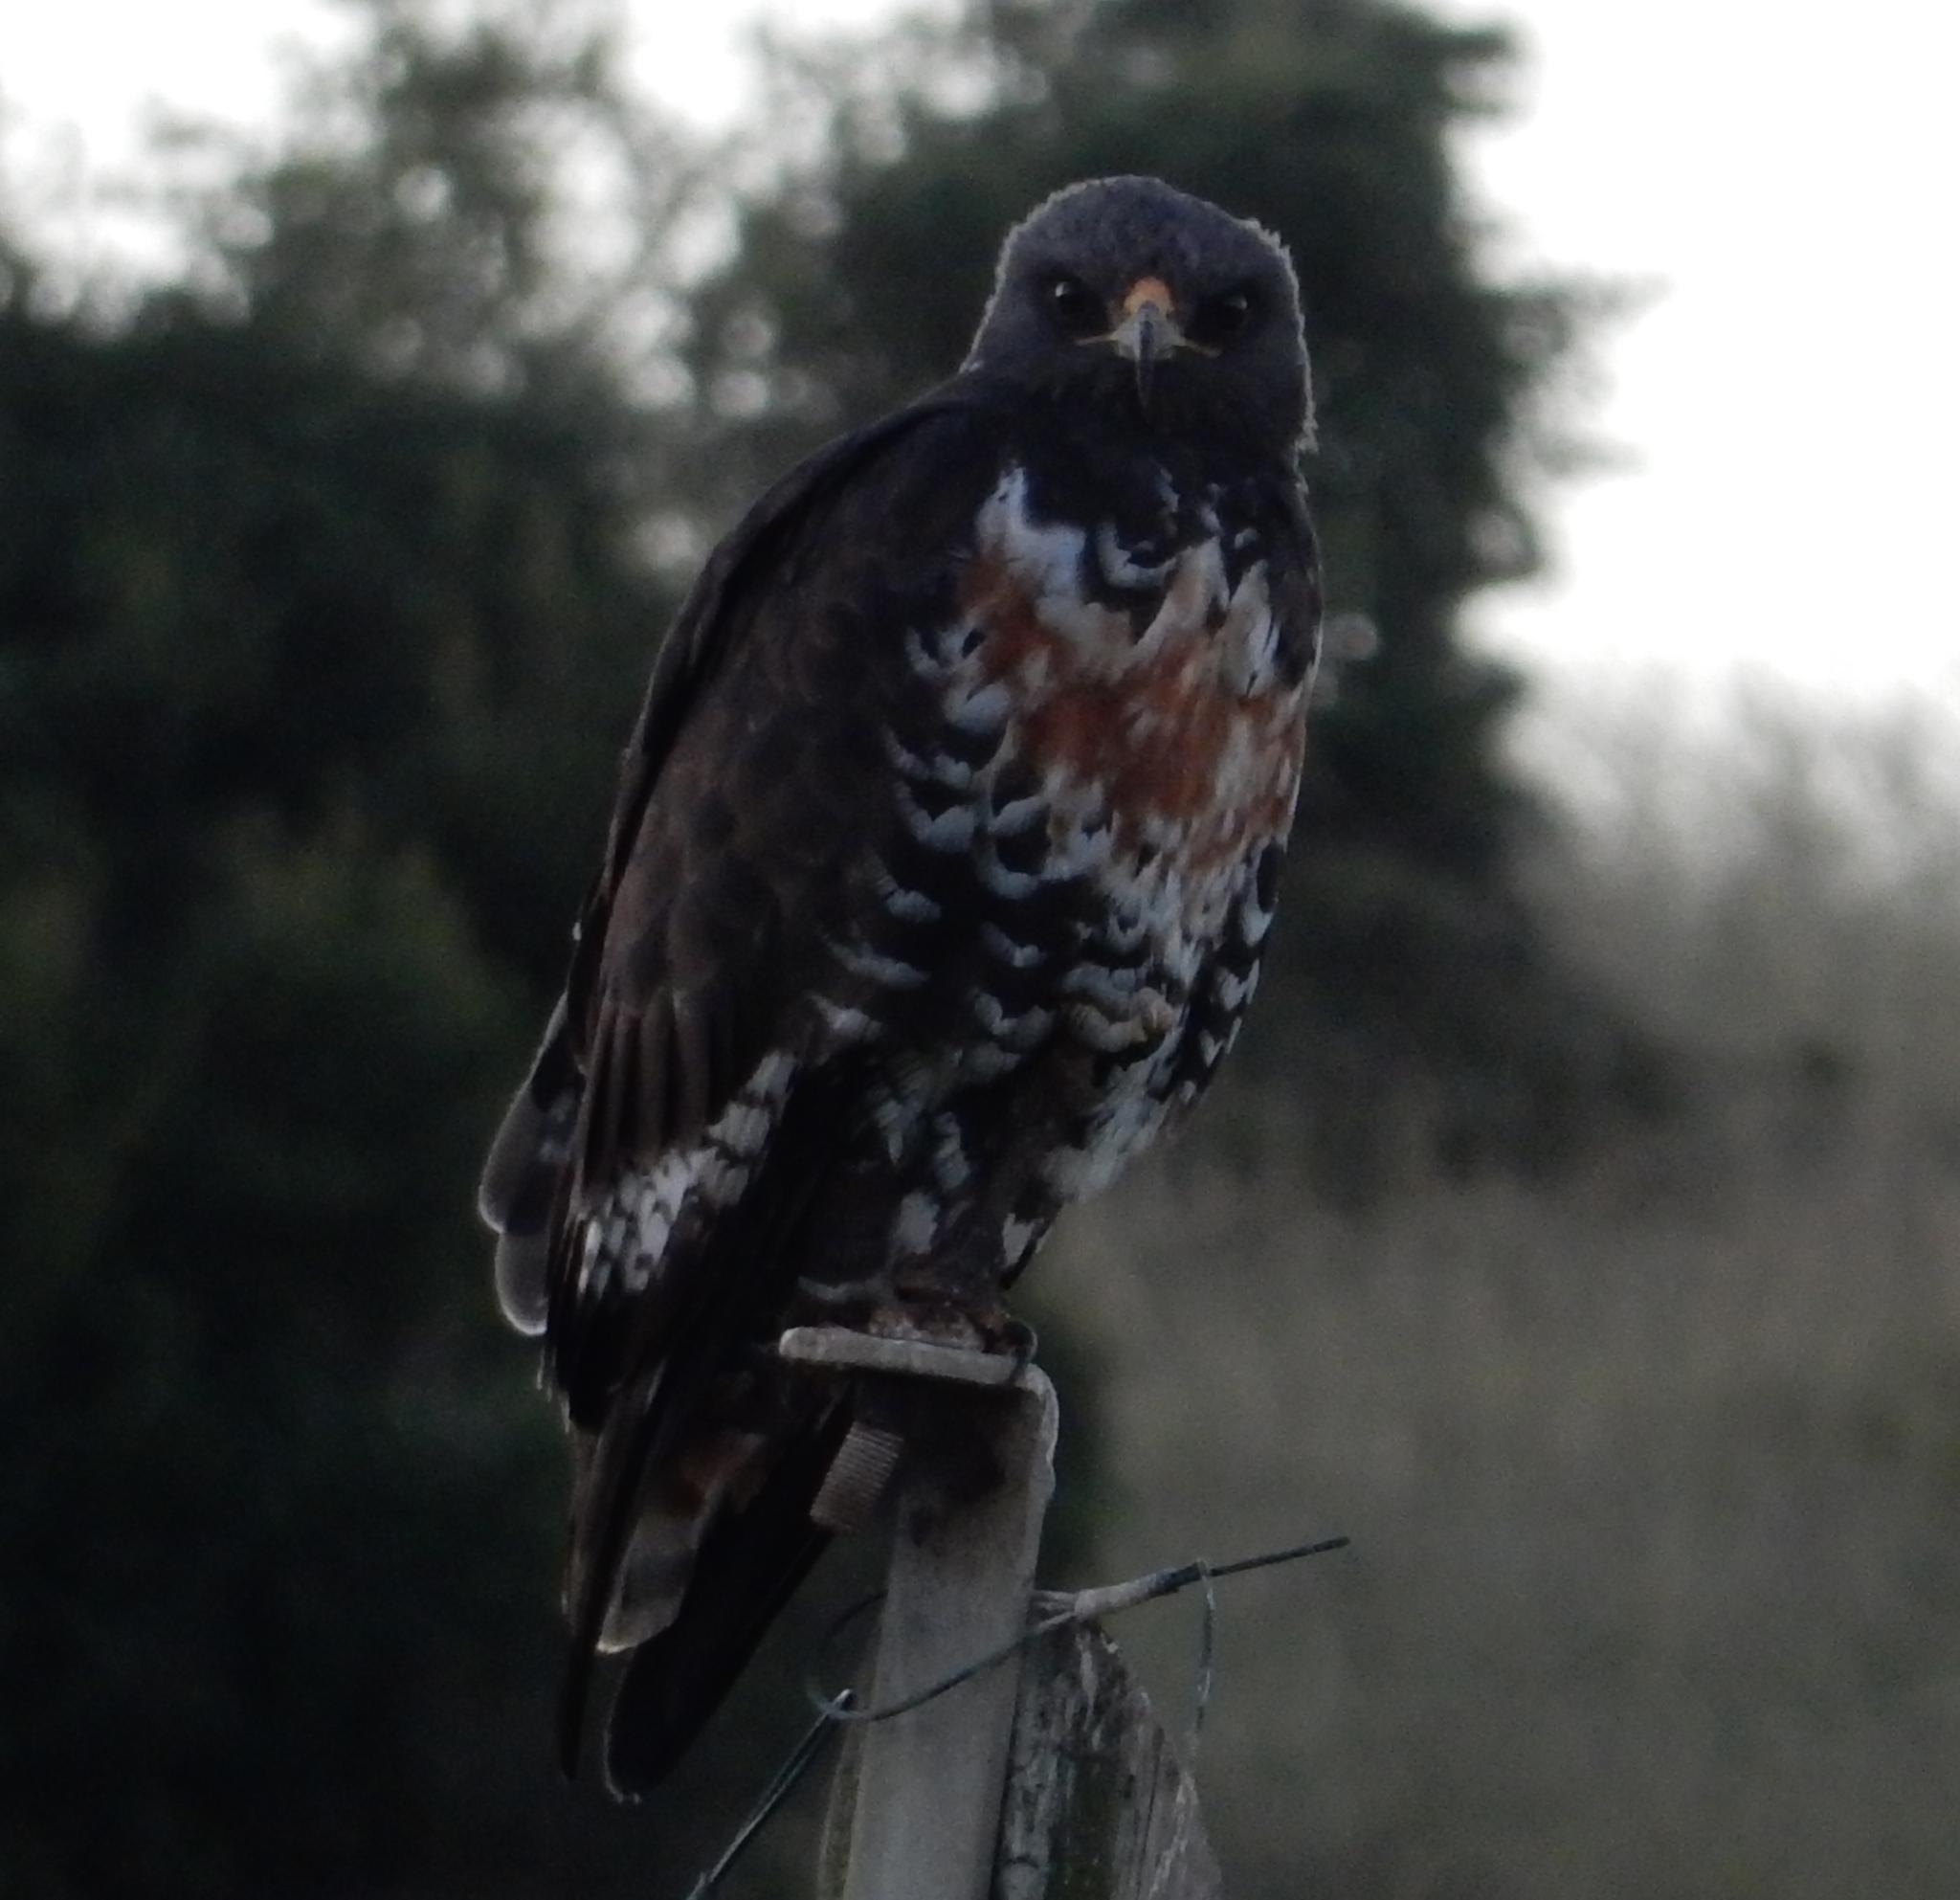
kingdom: Animalia
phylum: Chordata
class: Aves
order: Accipitriformes
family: Accipitridae
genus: Buteo
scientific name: Buteo rufofuscus
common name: Jackal buzzard
